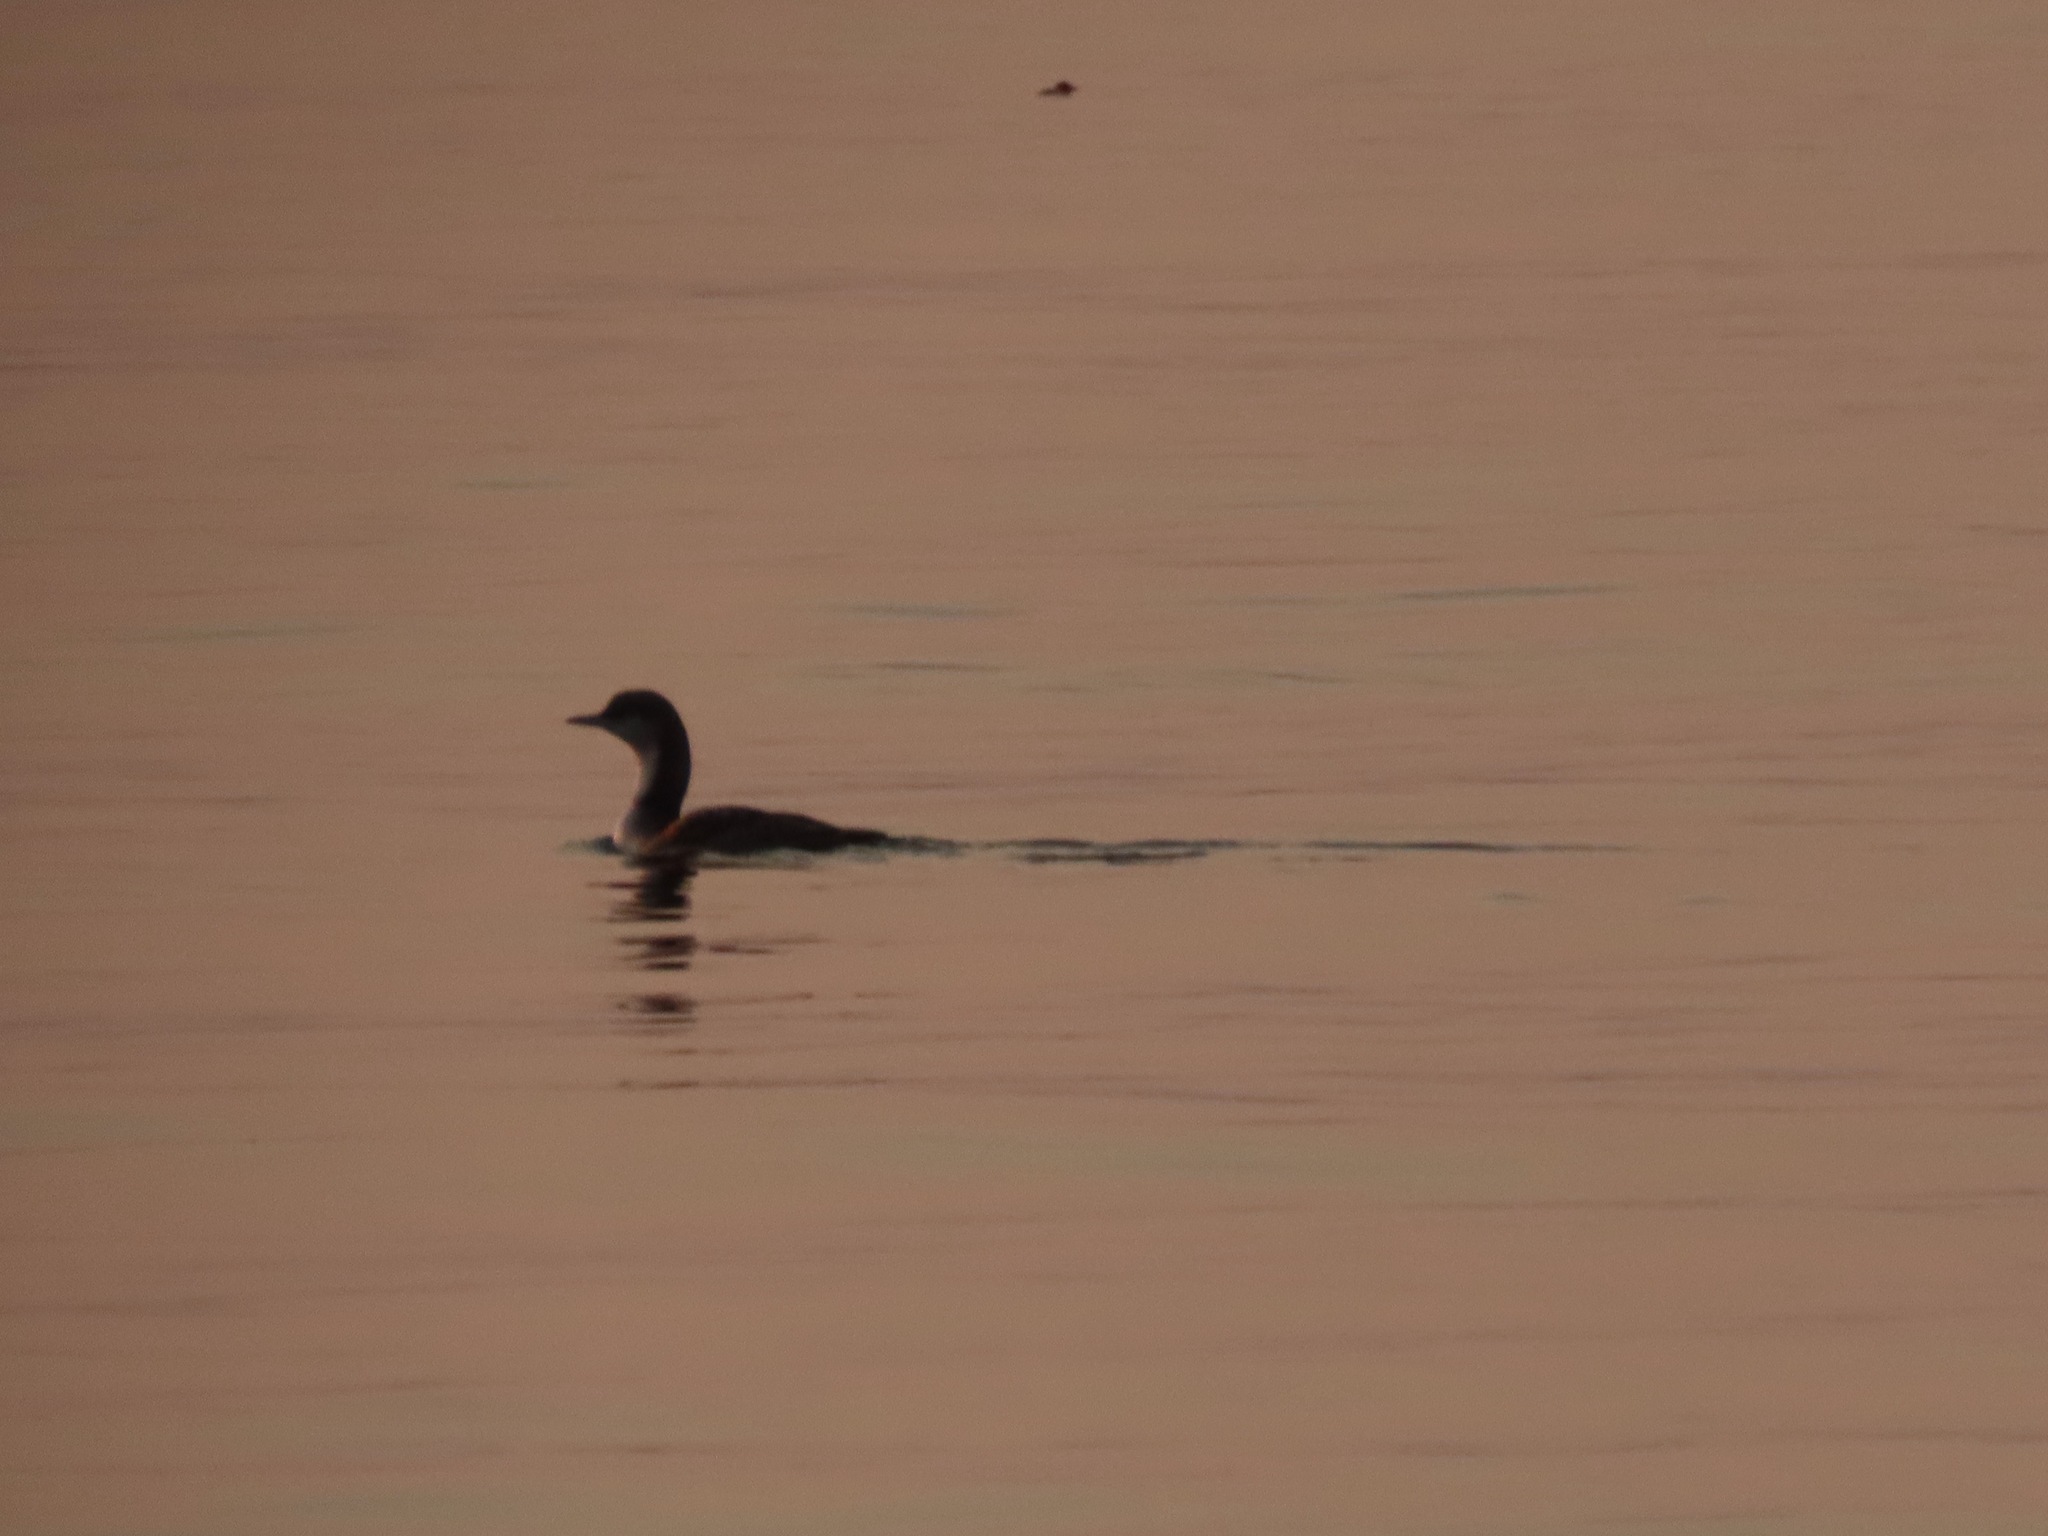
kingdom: Animalia
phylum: Chordata
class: Aves
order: Gaviiformes
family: Gaviidae
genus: Gavia
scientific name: Gavia pacifica
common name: Pacific loon
